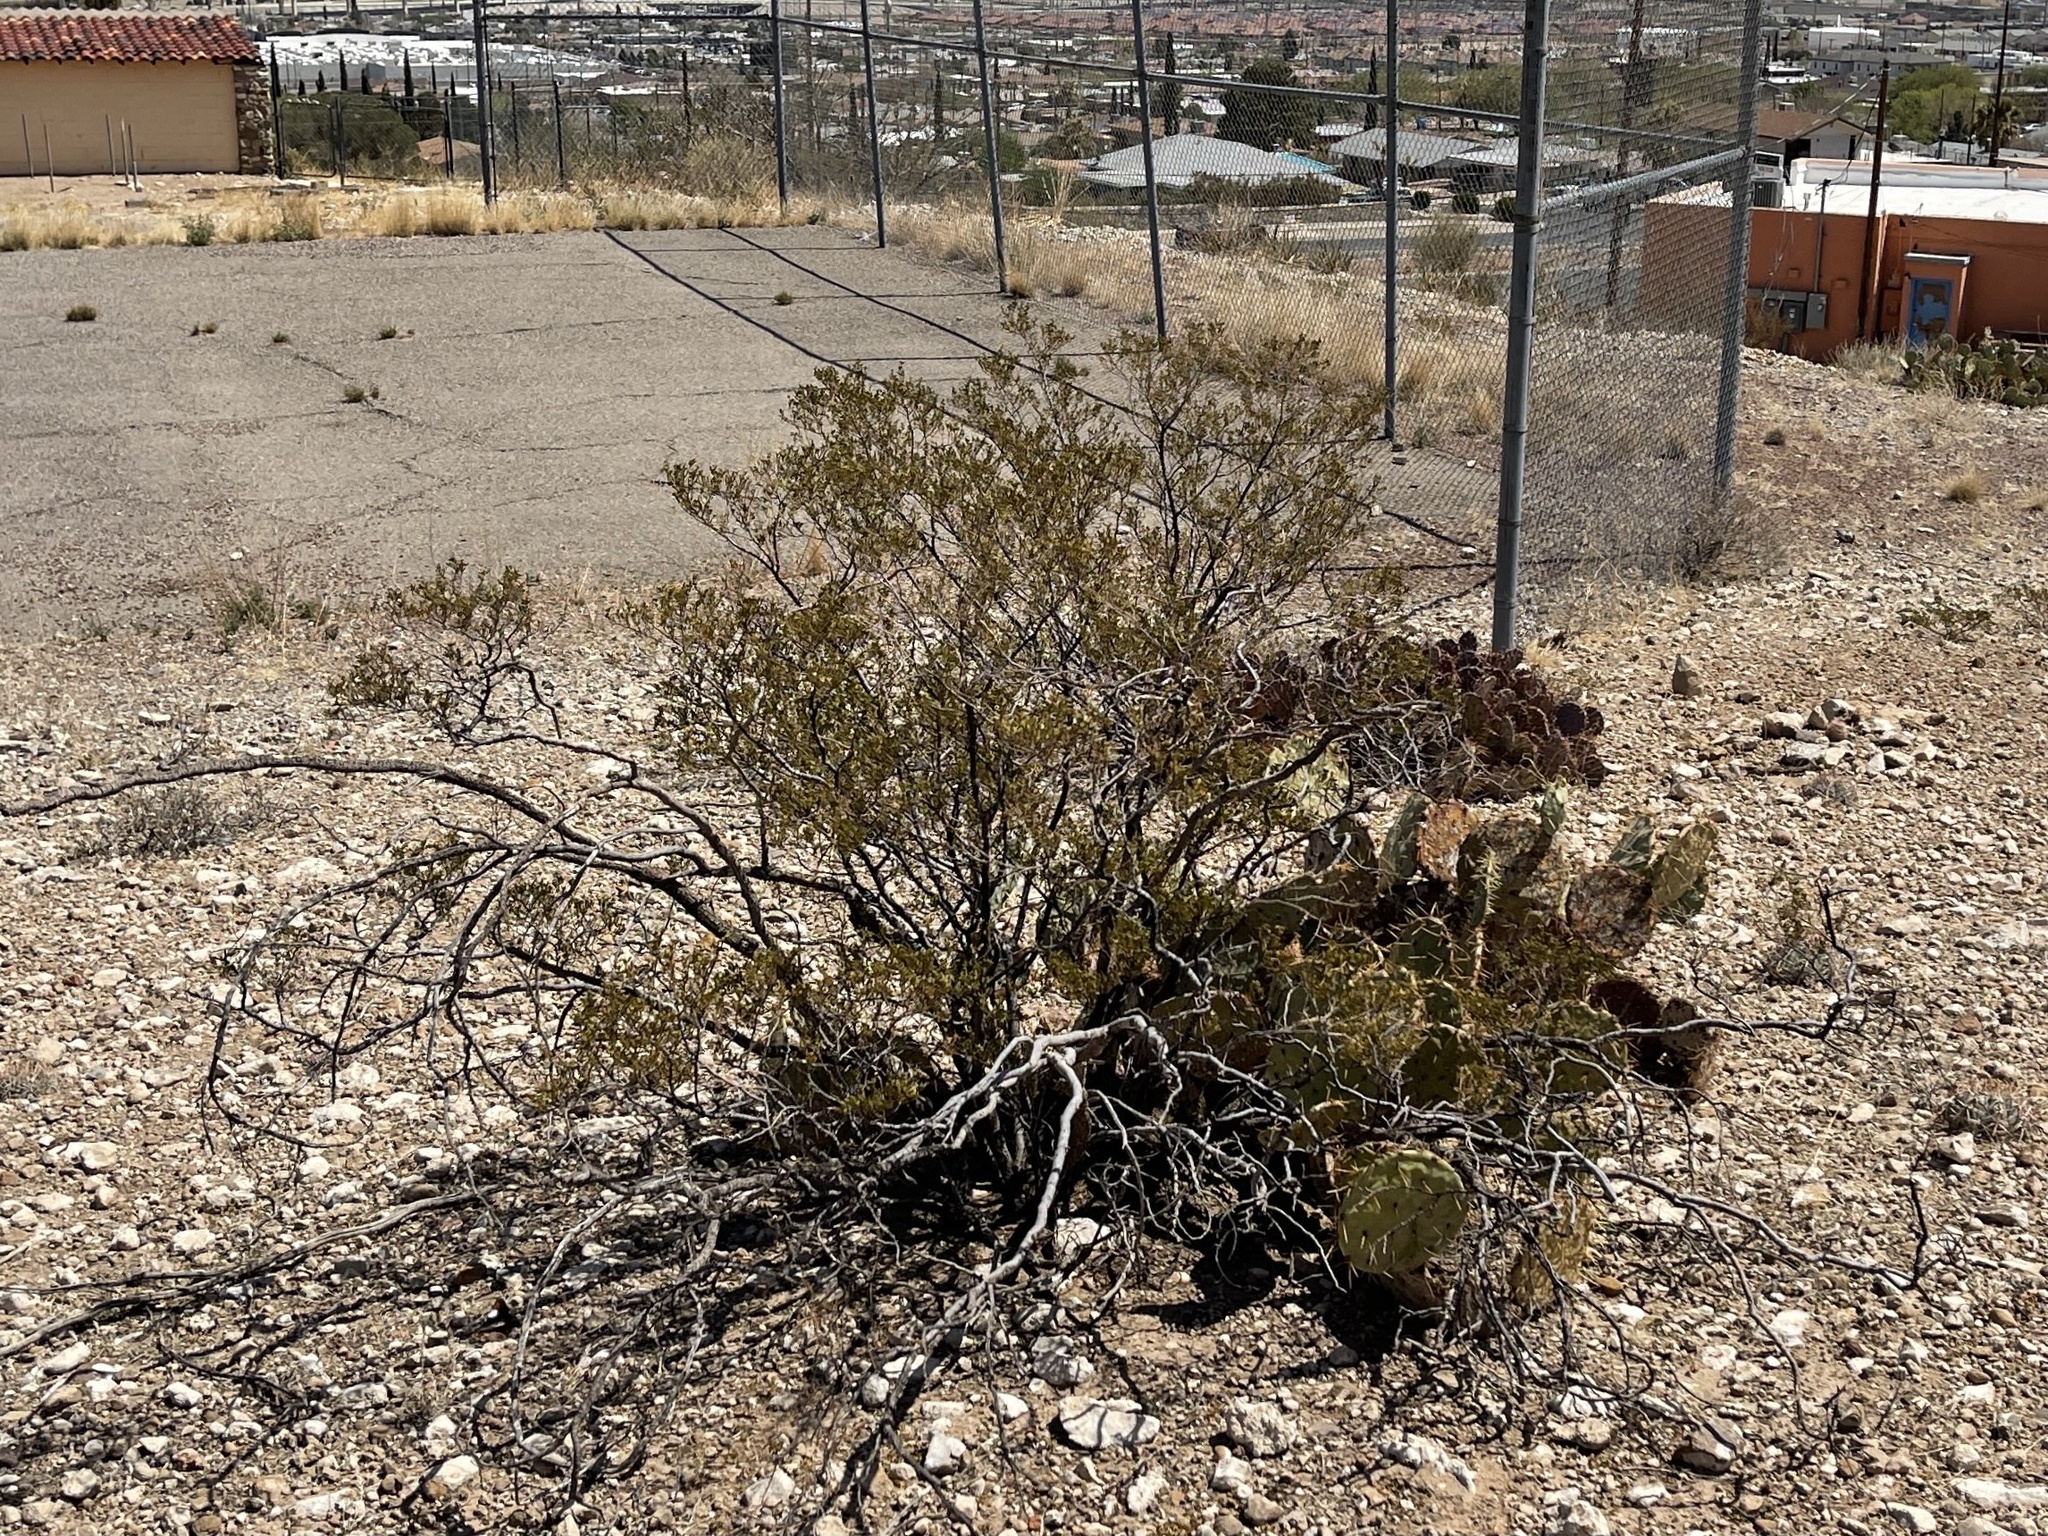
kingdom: Plantae
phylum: Tracheophyta
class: Magnoliopsida
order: Zygophyllales
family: Zygophyllaceae
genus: Larrea
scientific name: Larrea tridentata
